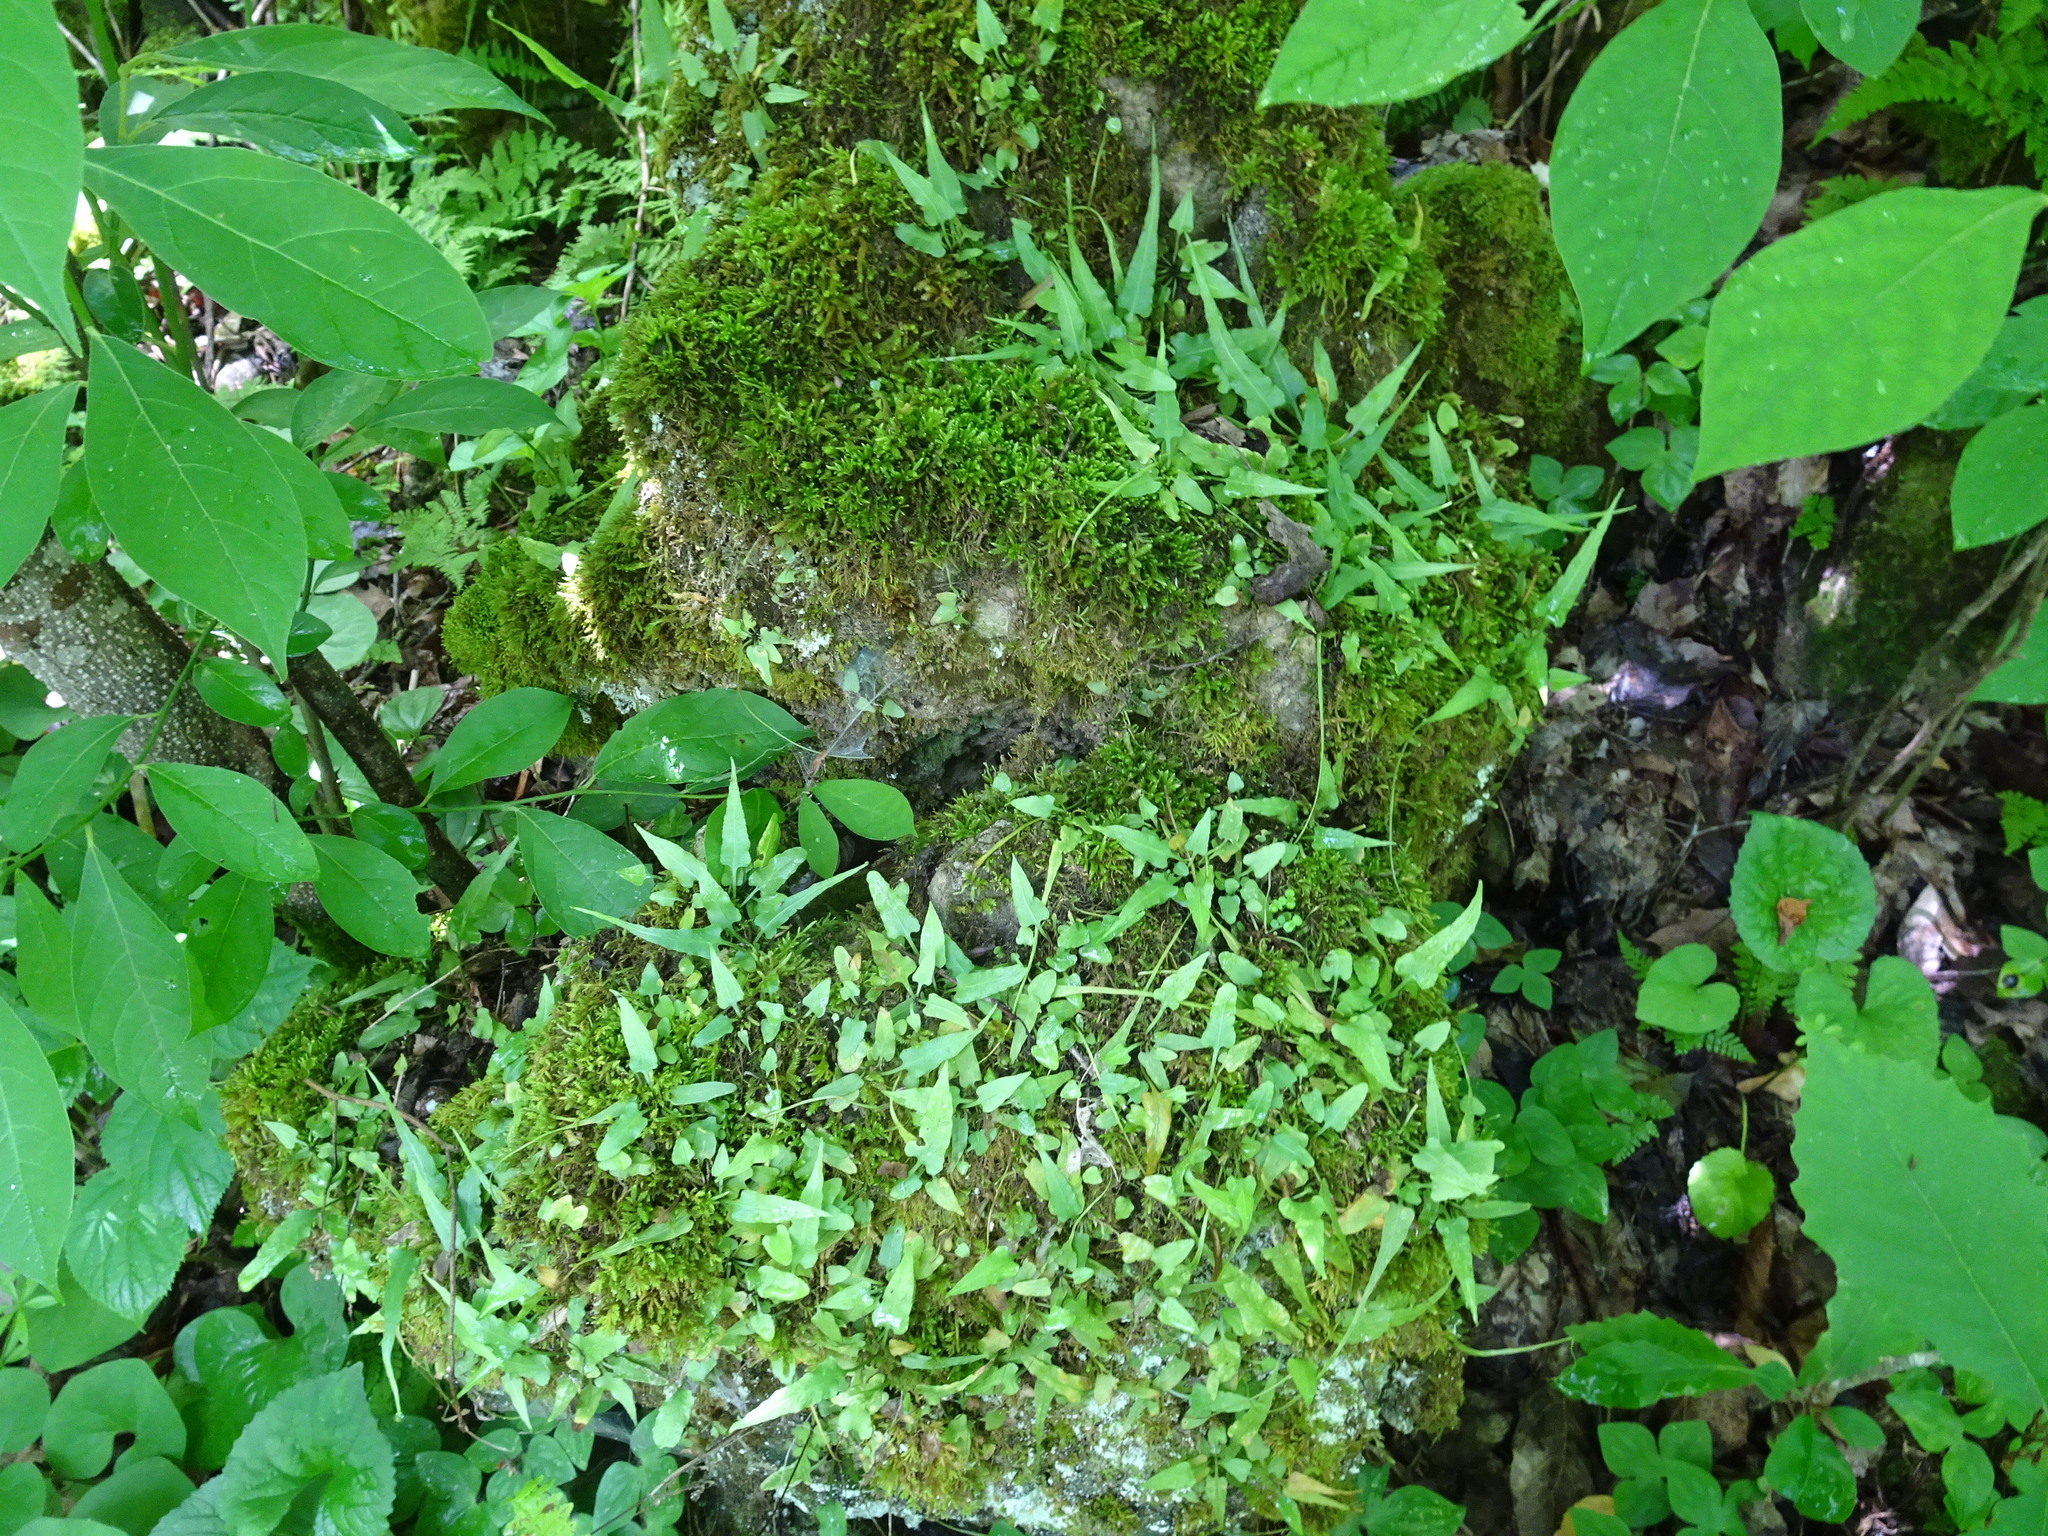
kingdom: Plantae
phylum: Tracheophyta
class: Polypodiopsida
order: Polypodiales
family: Aspleniaceae
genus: Asplenium
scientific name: Asplenium rhizophyllum
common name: Walking fern
